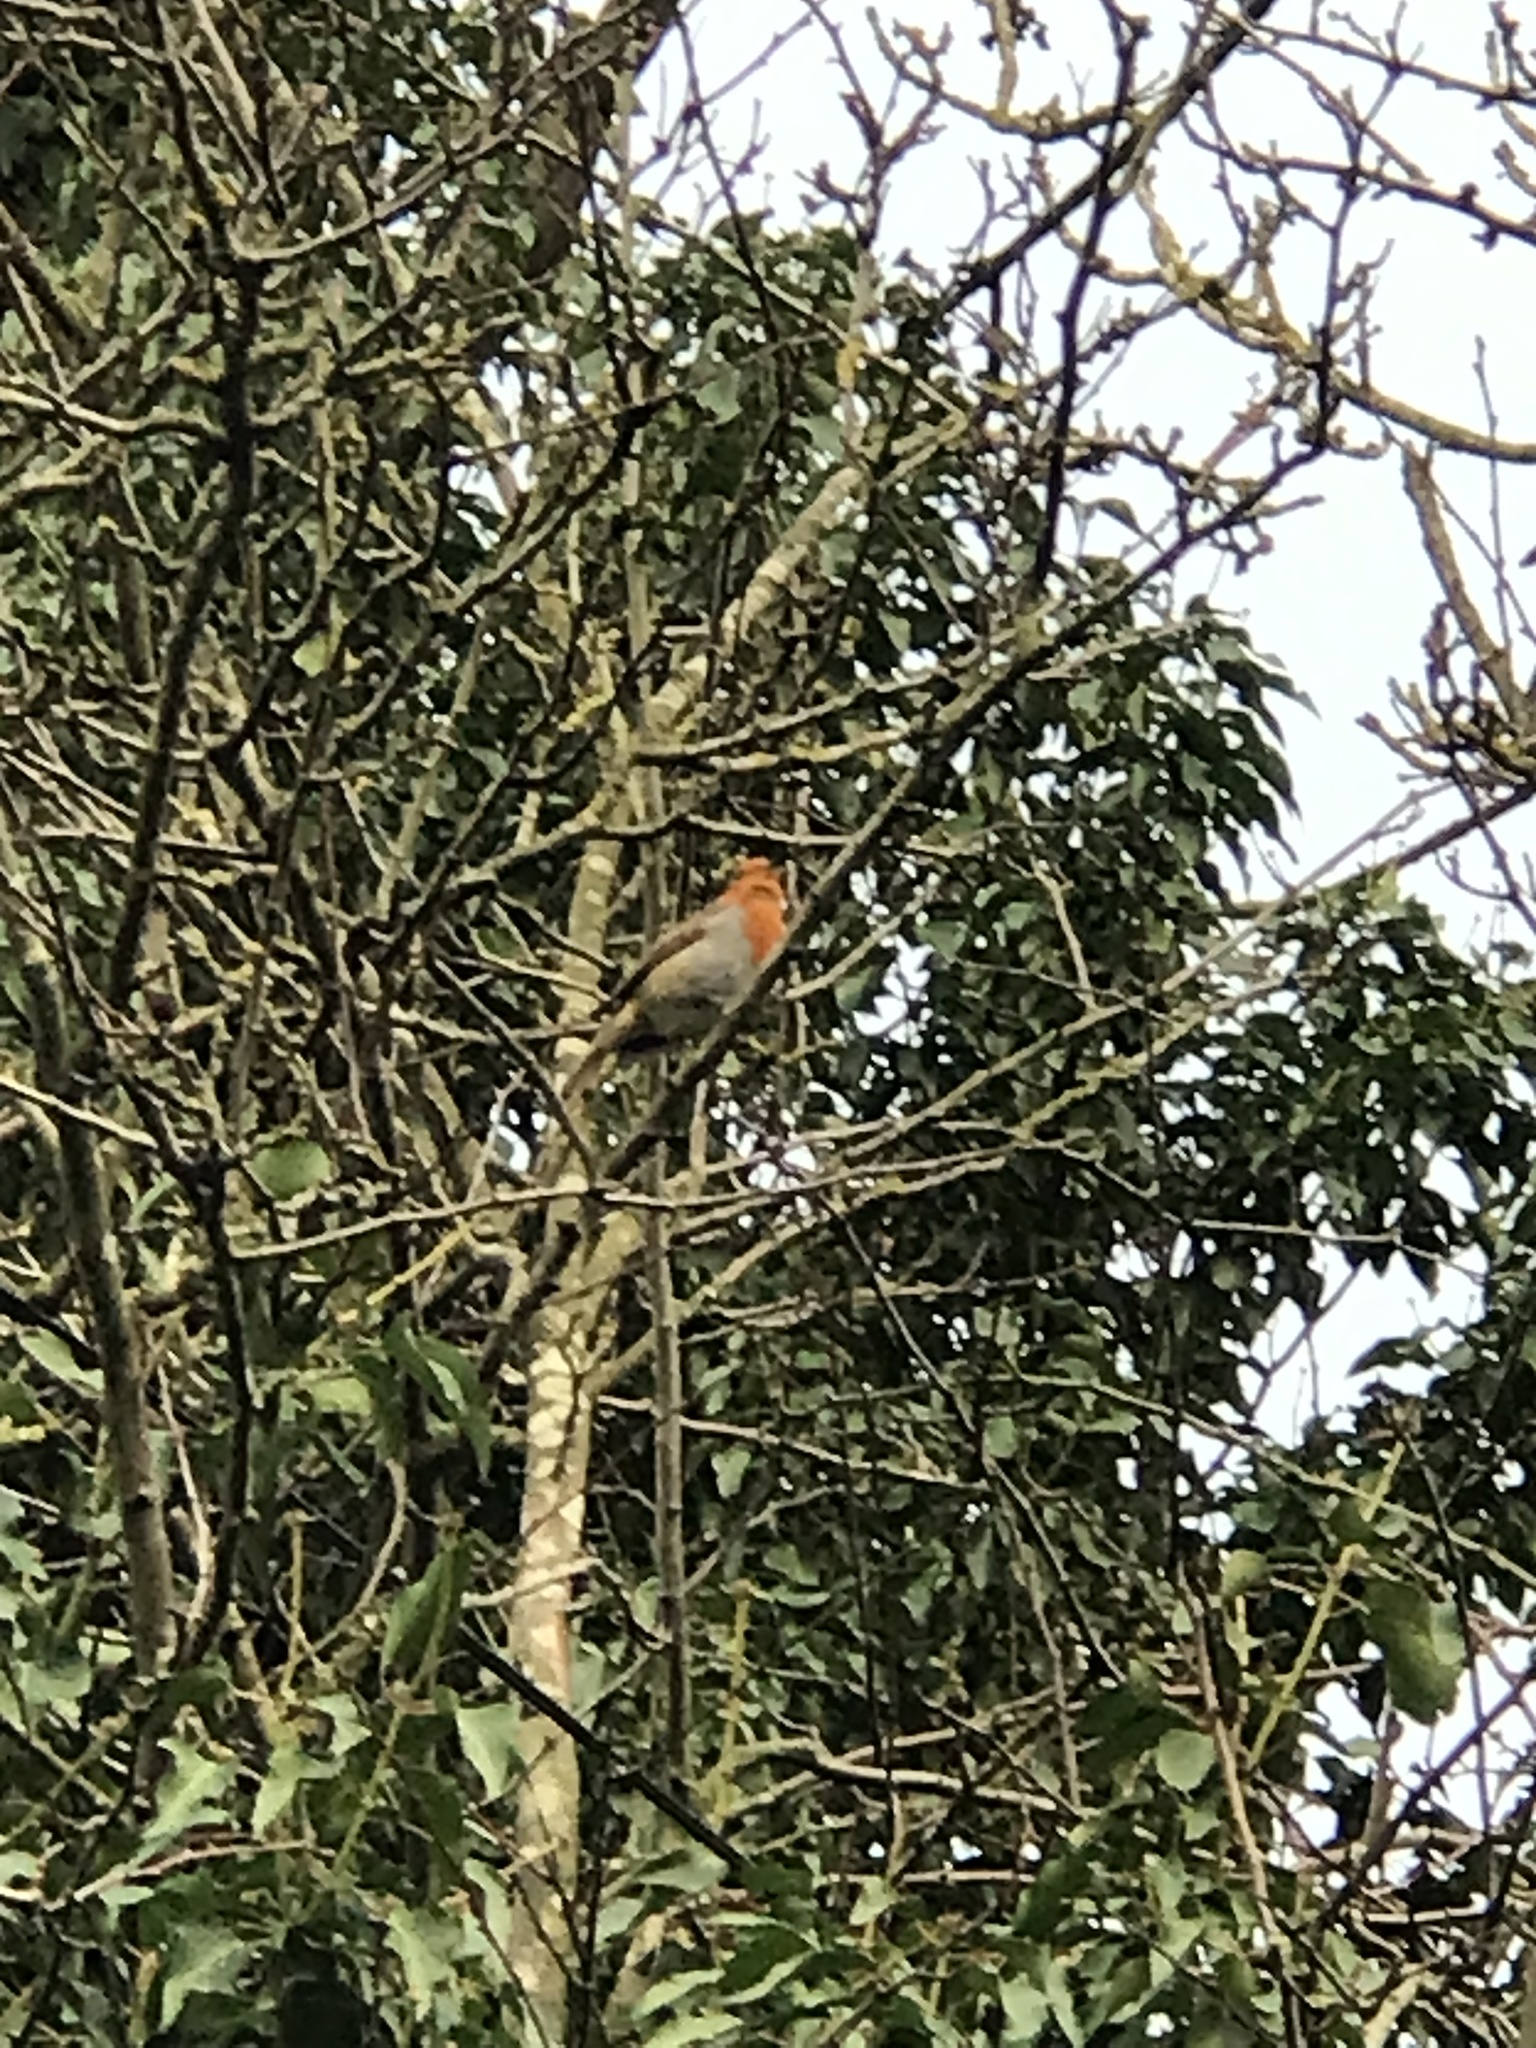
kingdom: Animalia
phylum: Chordata
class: Aves
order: Passeriformes
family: Muscicapidae
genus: Erithacus
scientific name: Erithacus rubecula
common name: European robin
